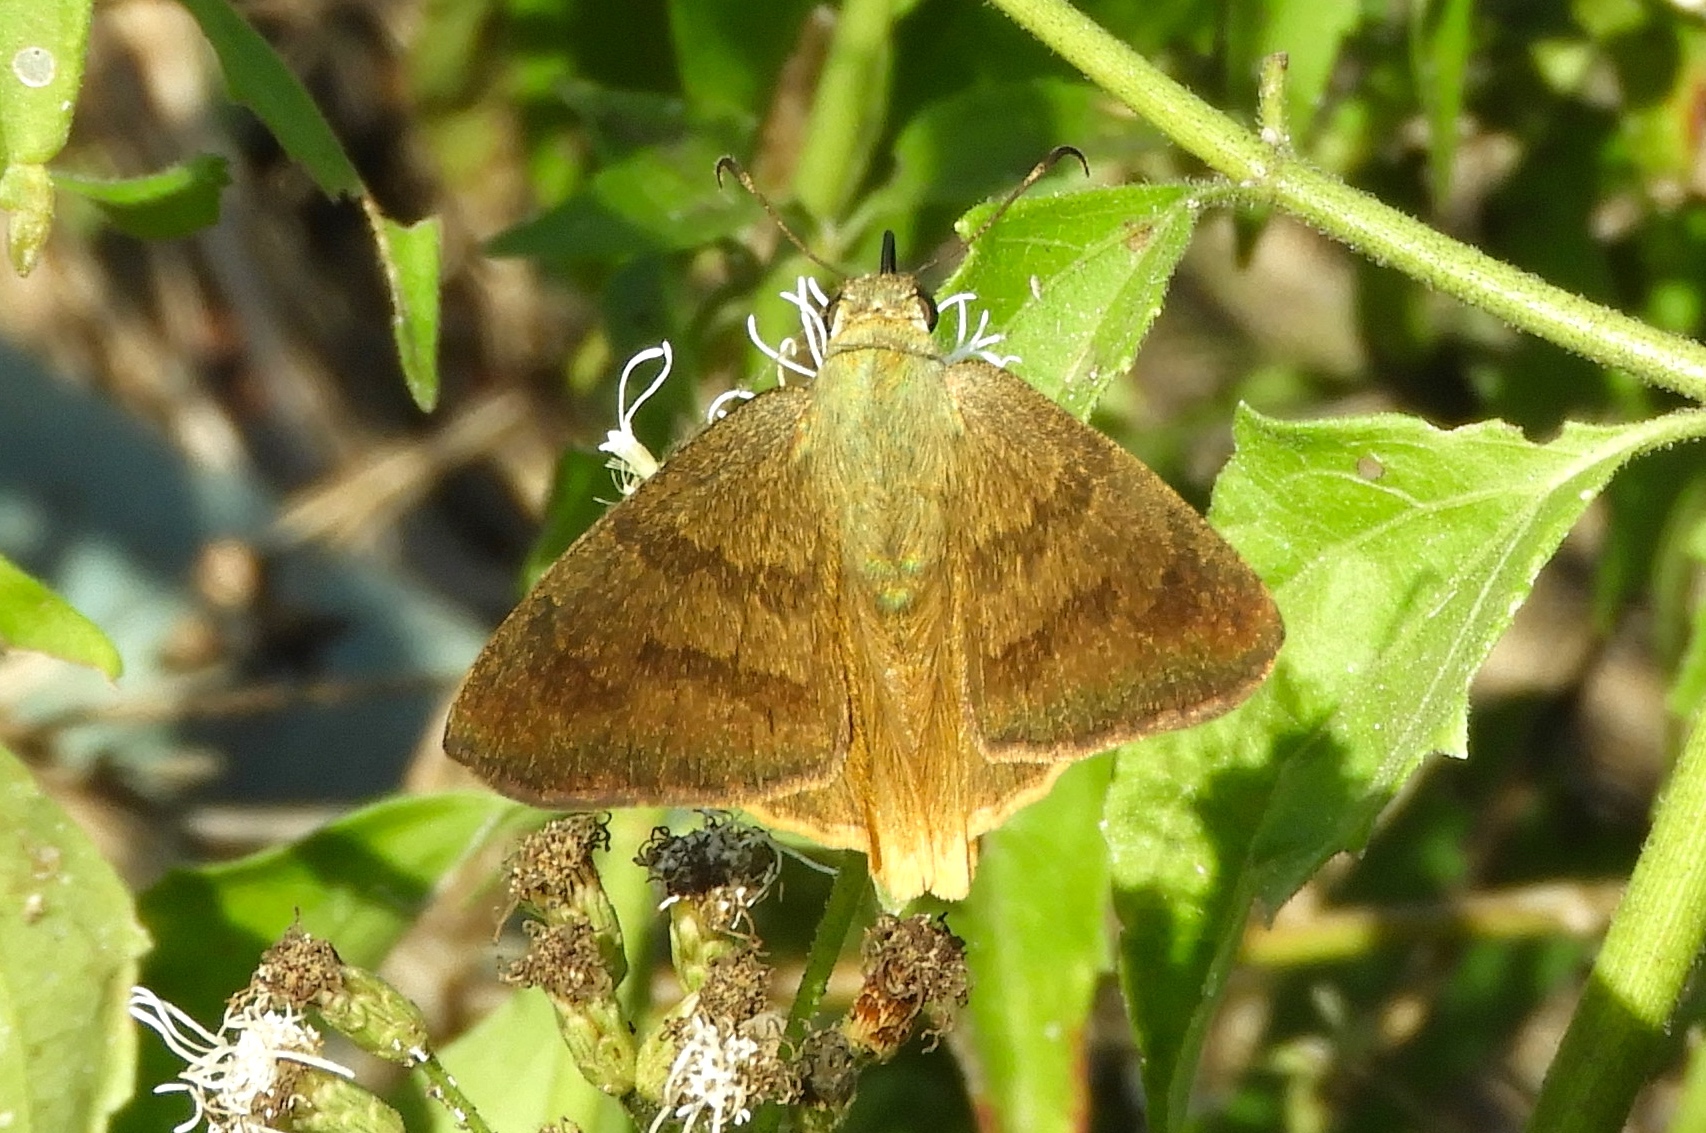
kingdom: Animalia
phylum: Arthropoda
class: Insecta
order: Lepidoptera
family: Hesperiidae
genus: Astraptes
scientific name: Astraptes anaphus
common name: Yellow-tipped flasher
